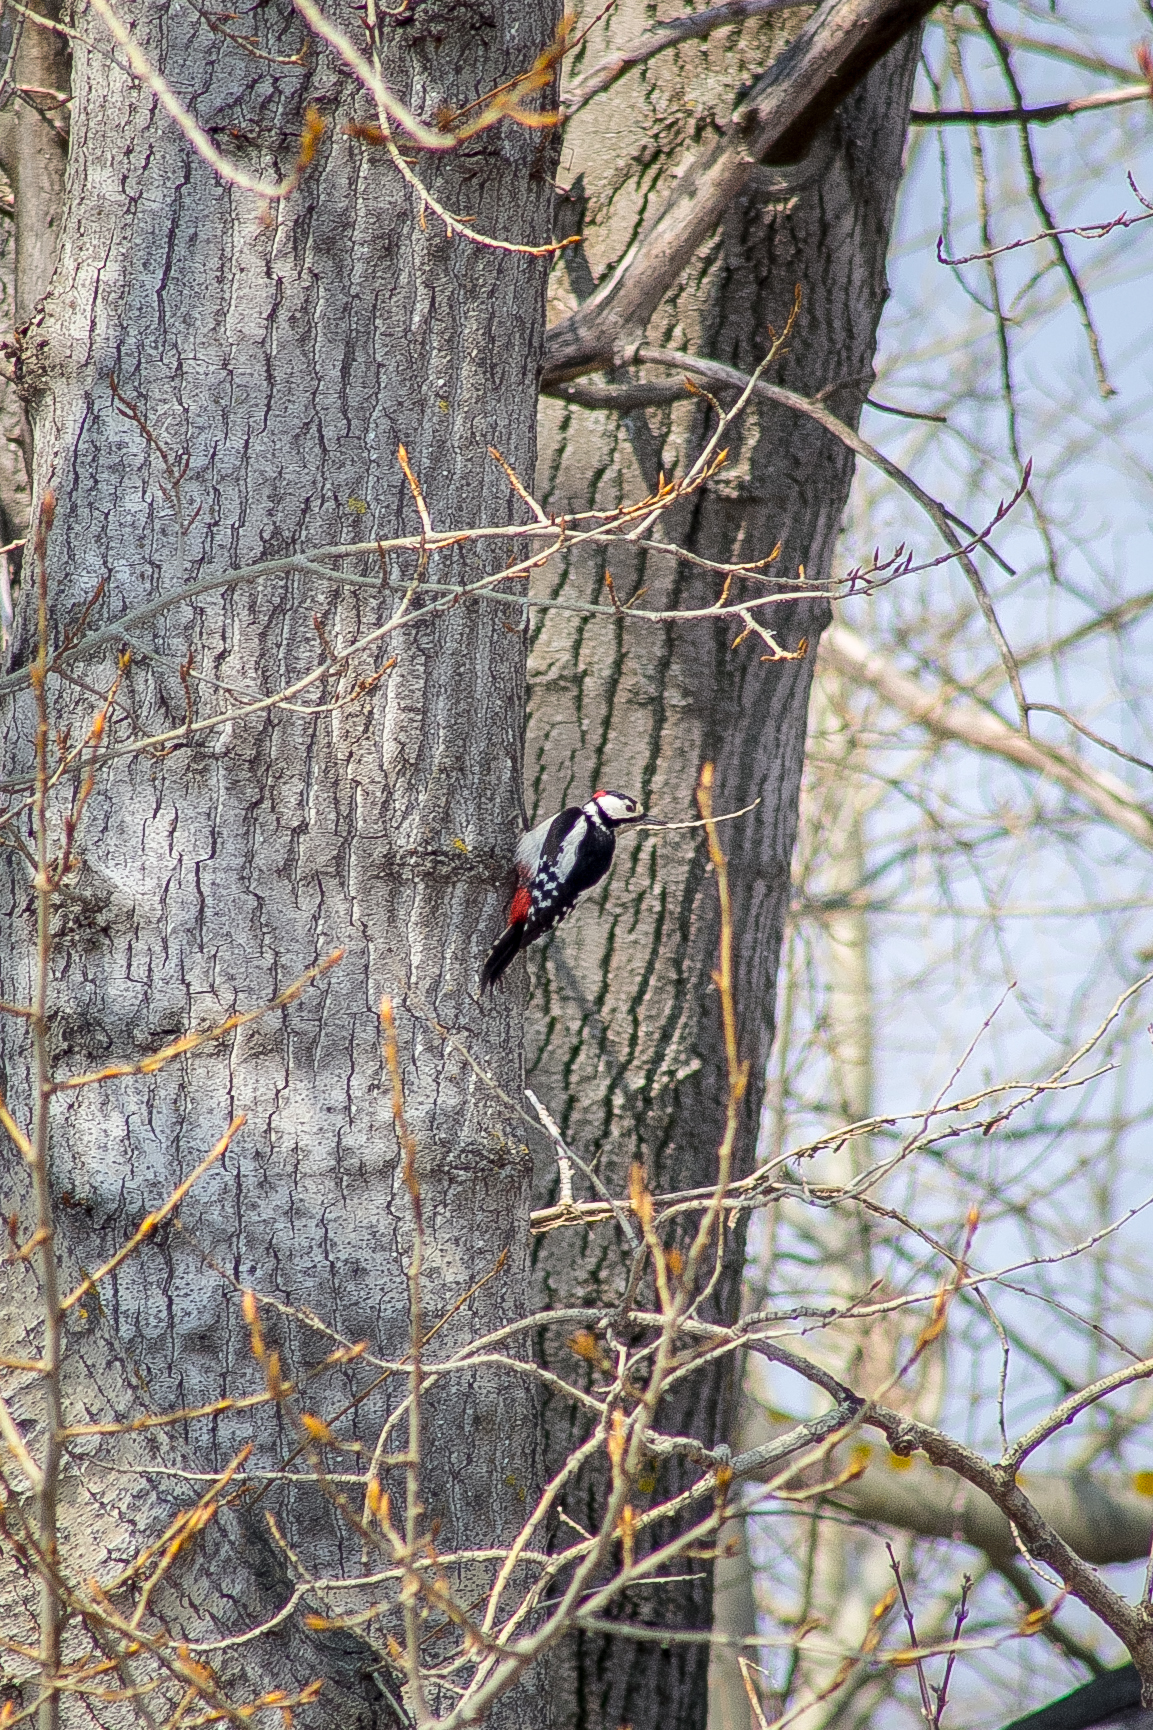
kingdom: Animalia
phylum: Chordata
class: Aves
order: Piciformes
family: Picidae
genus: Dendrocopos
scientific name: Dendrocopos major
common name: Great spotted woodpecker
